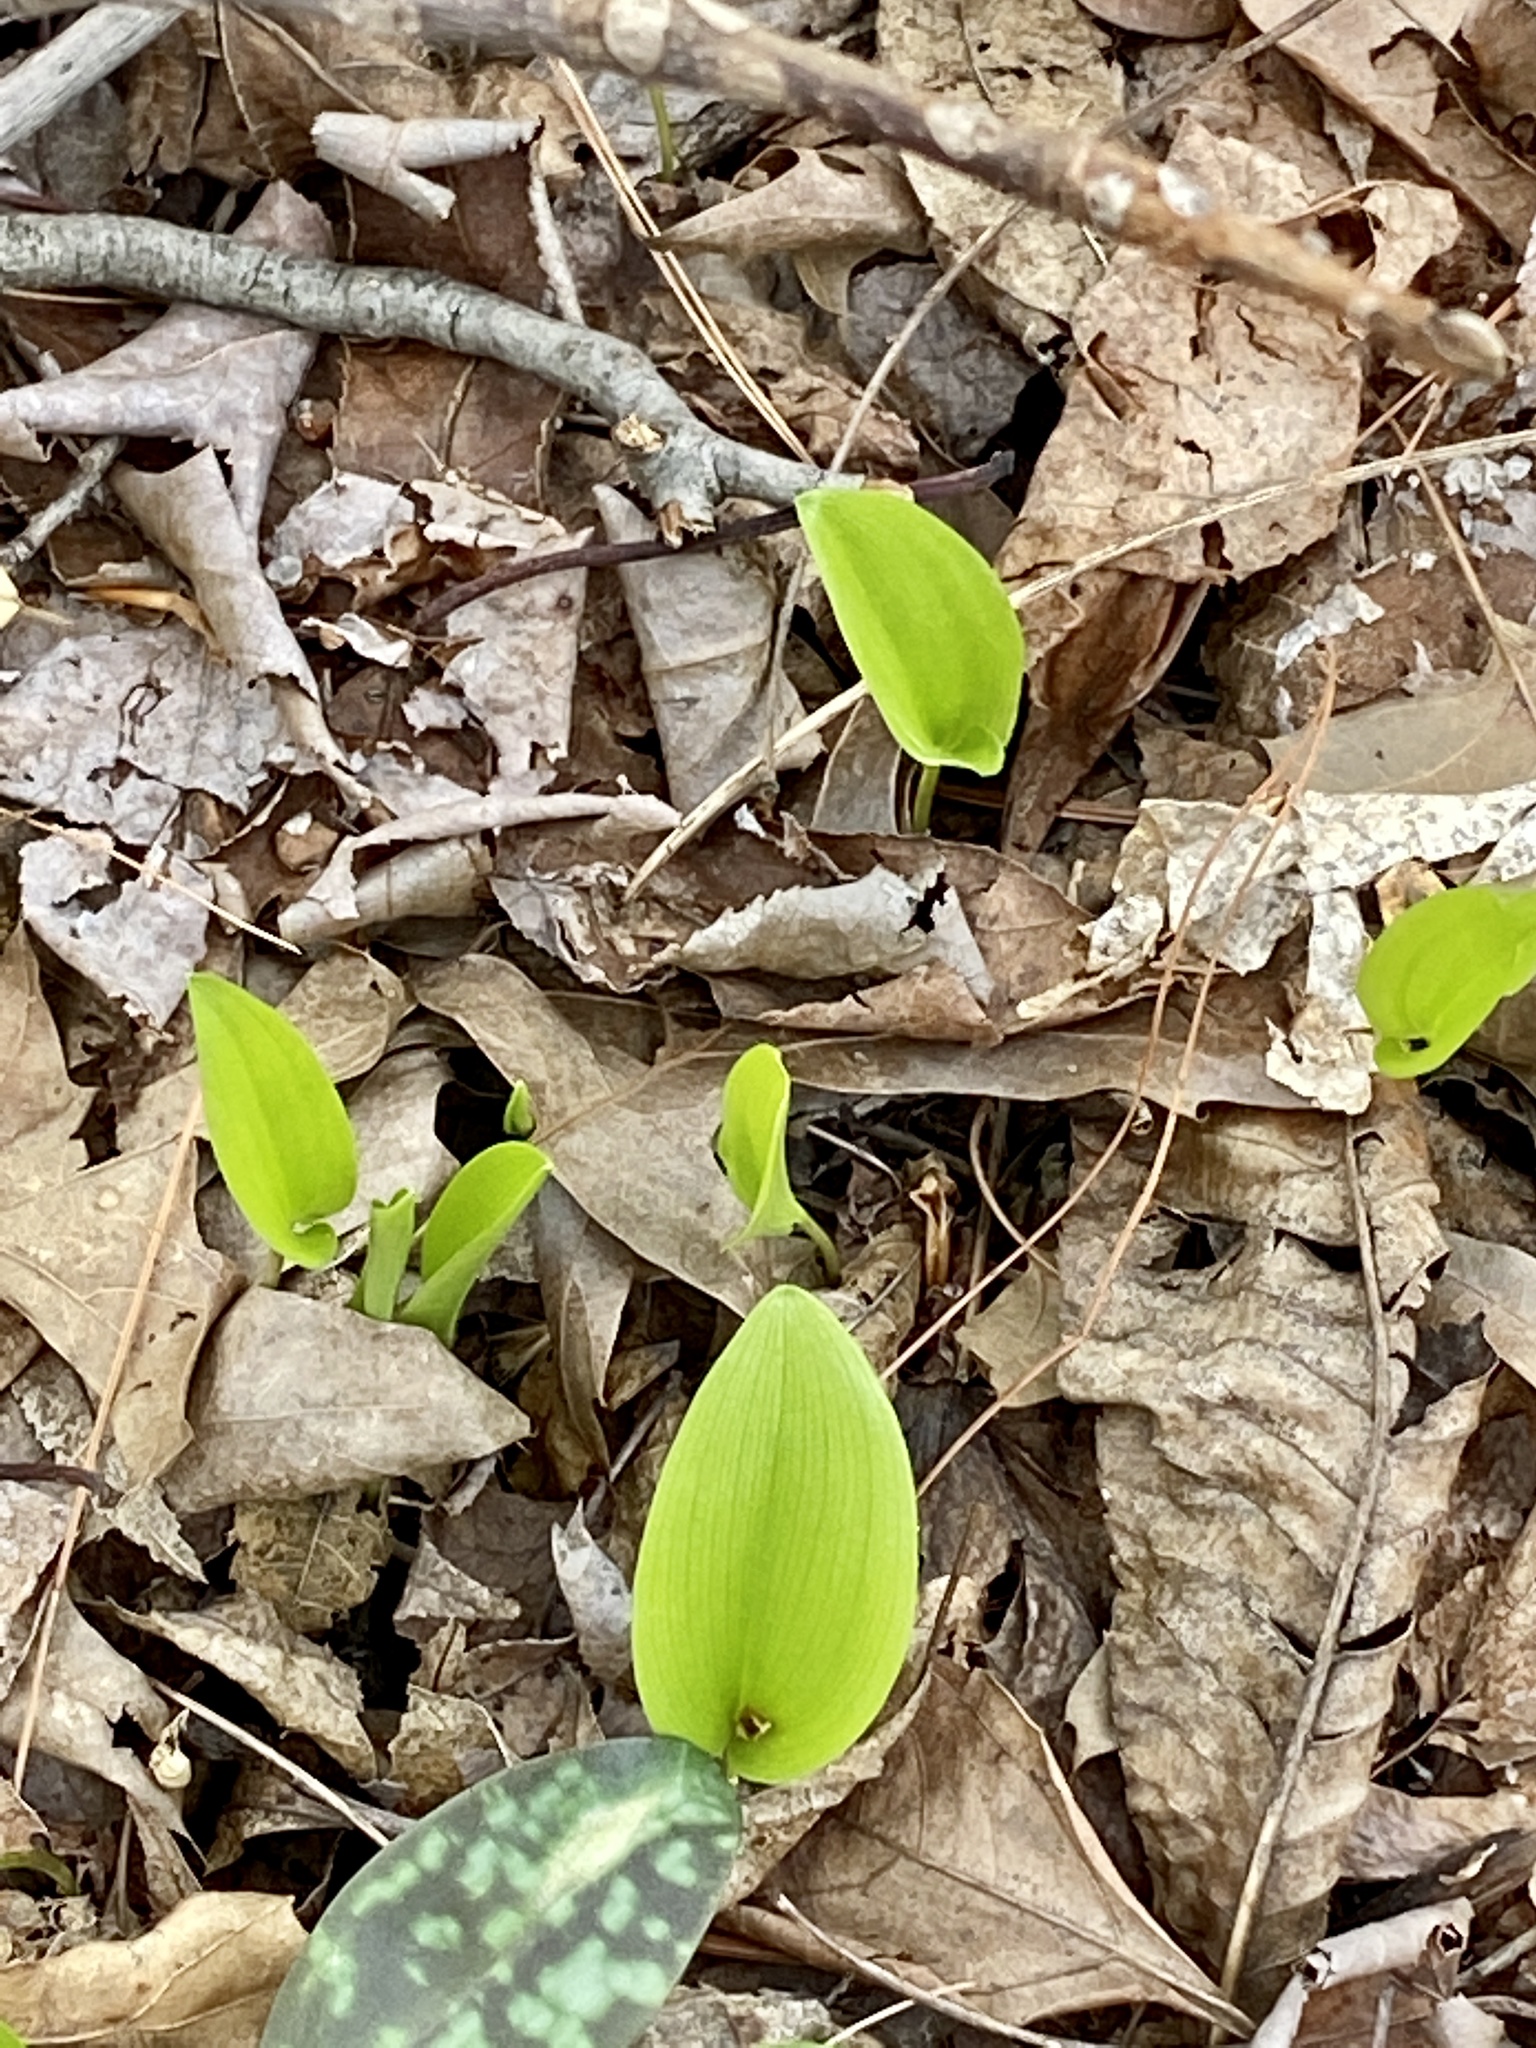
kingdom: Plantae
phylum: Tracheophyta
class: Liliopsida
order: Asparagales
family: Asparagaceae
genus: Maianthemum
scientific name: Maianthemum canadense
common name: False lily-of-the-valley
